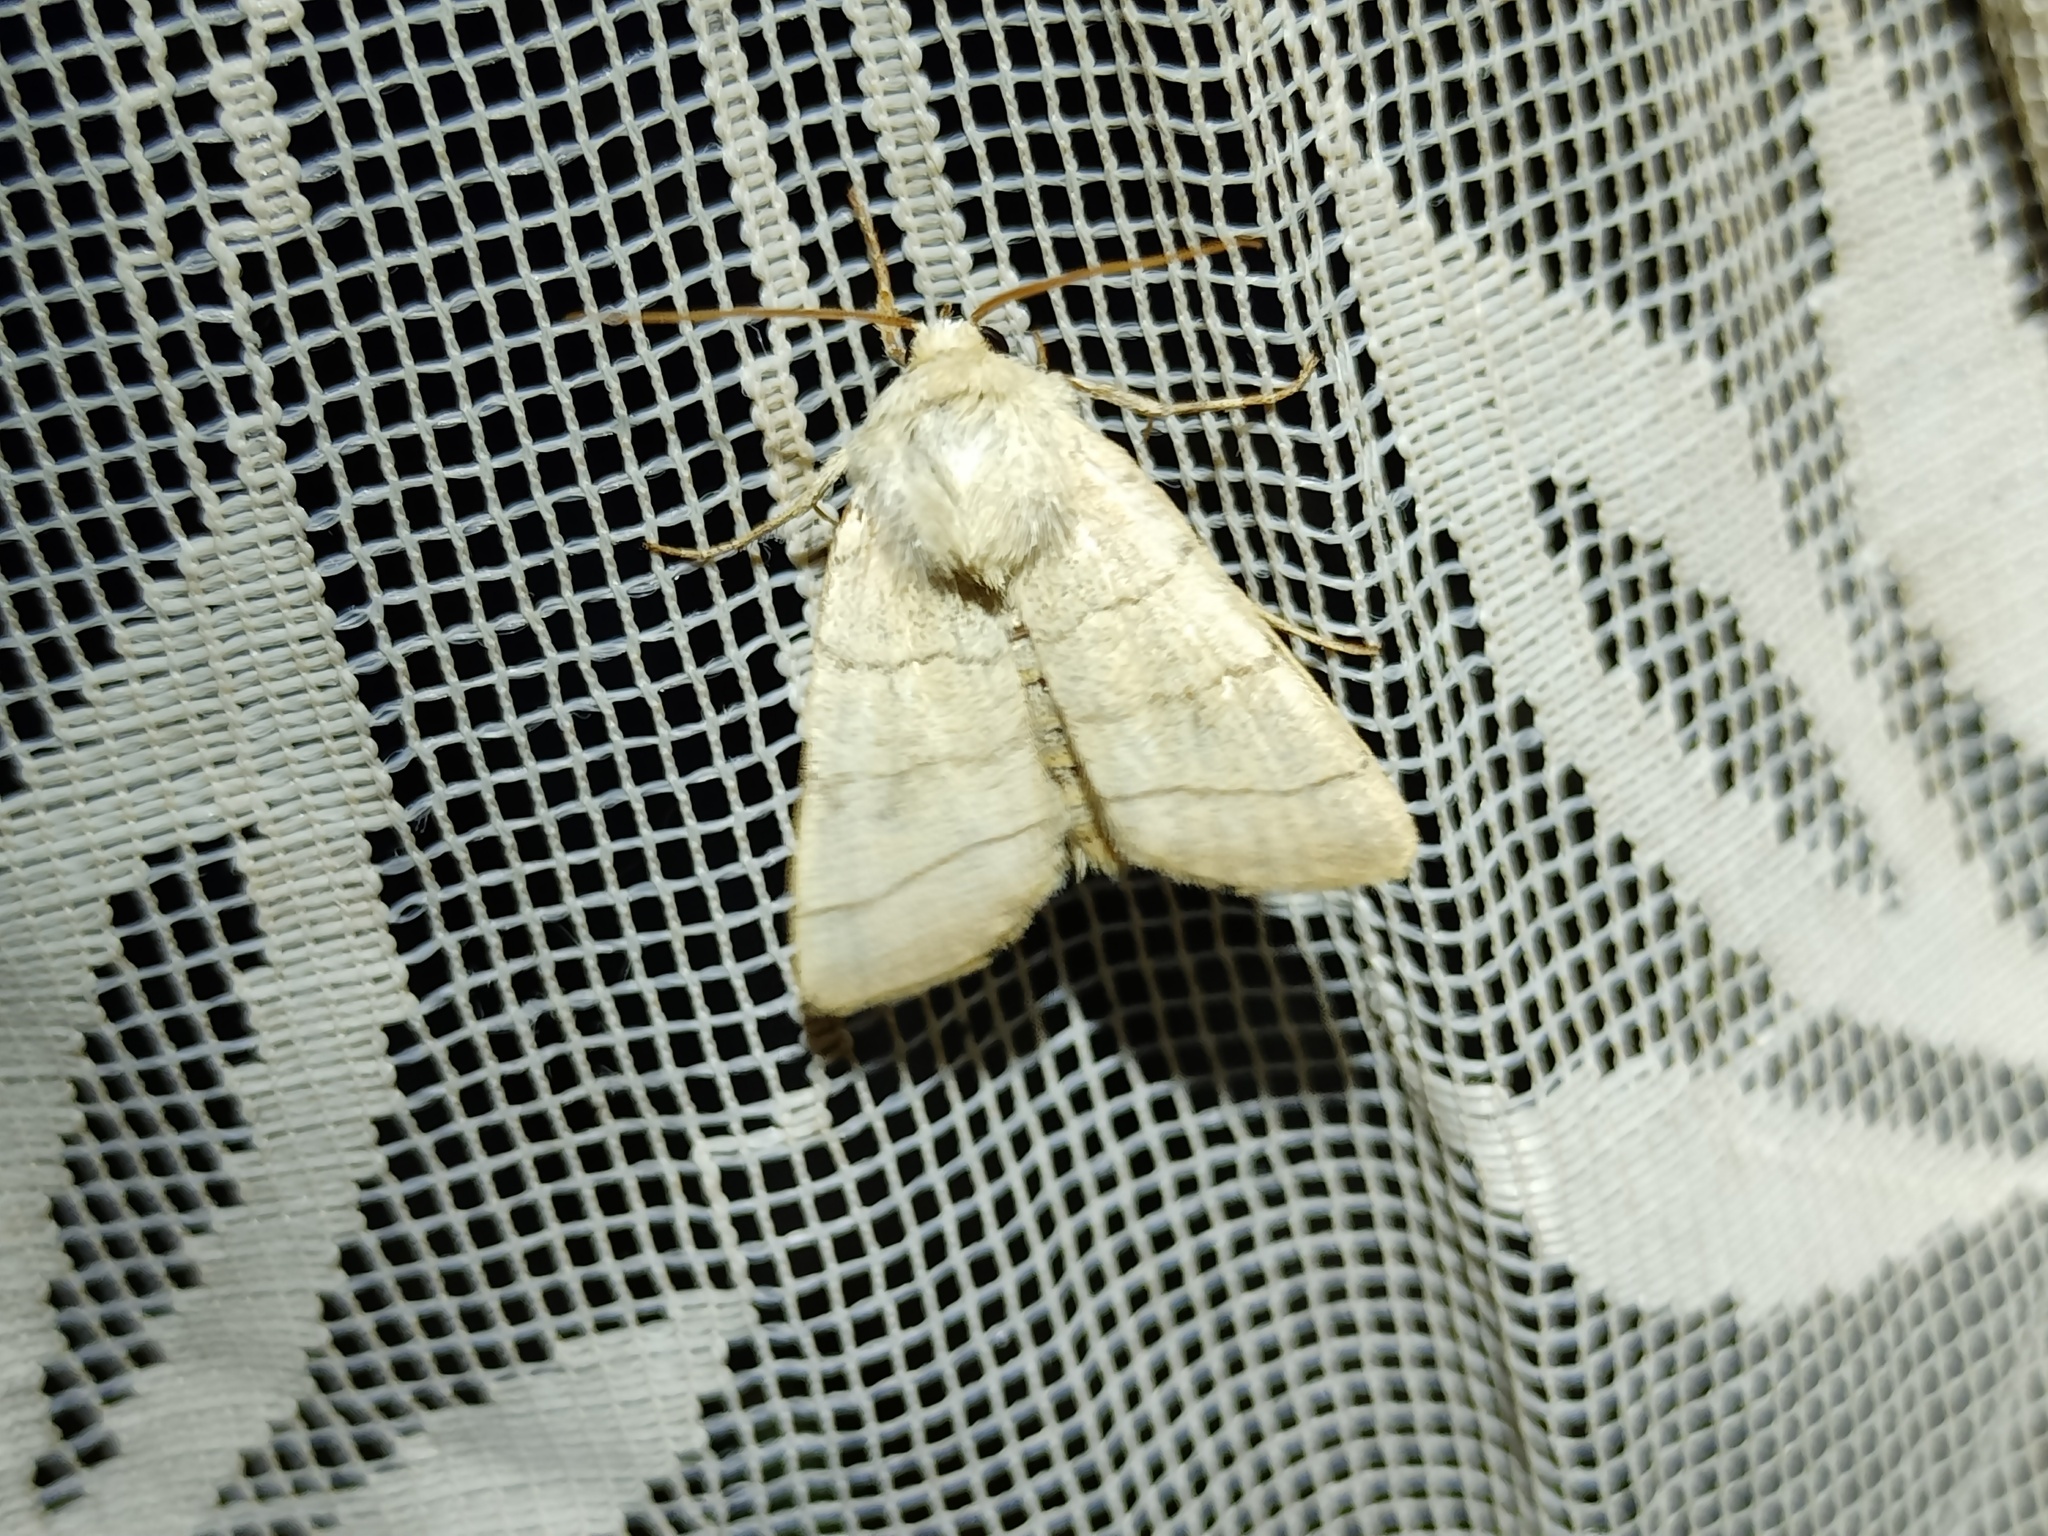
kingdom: Animalia
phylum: Arthropoda
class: Insecta
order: Lepidoptera
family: Noctuidae
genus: Charanyca
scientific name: Charanyca trigrammica
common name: Treble lines
